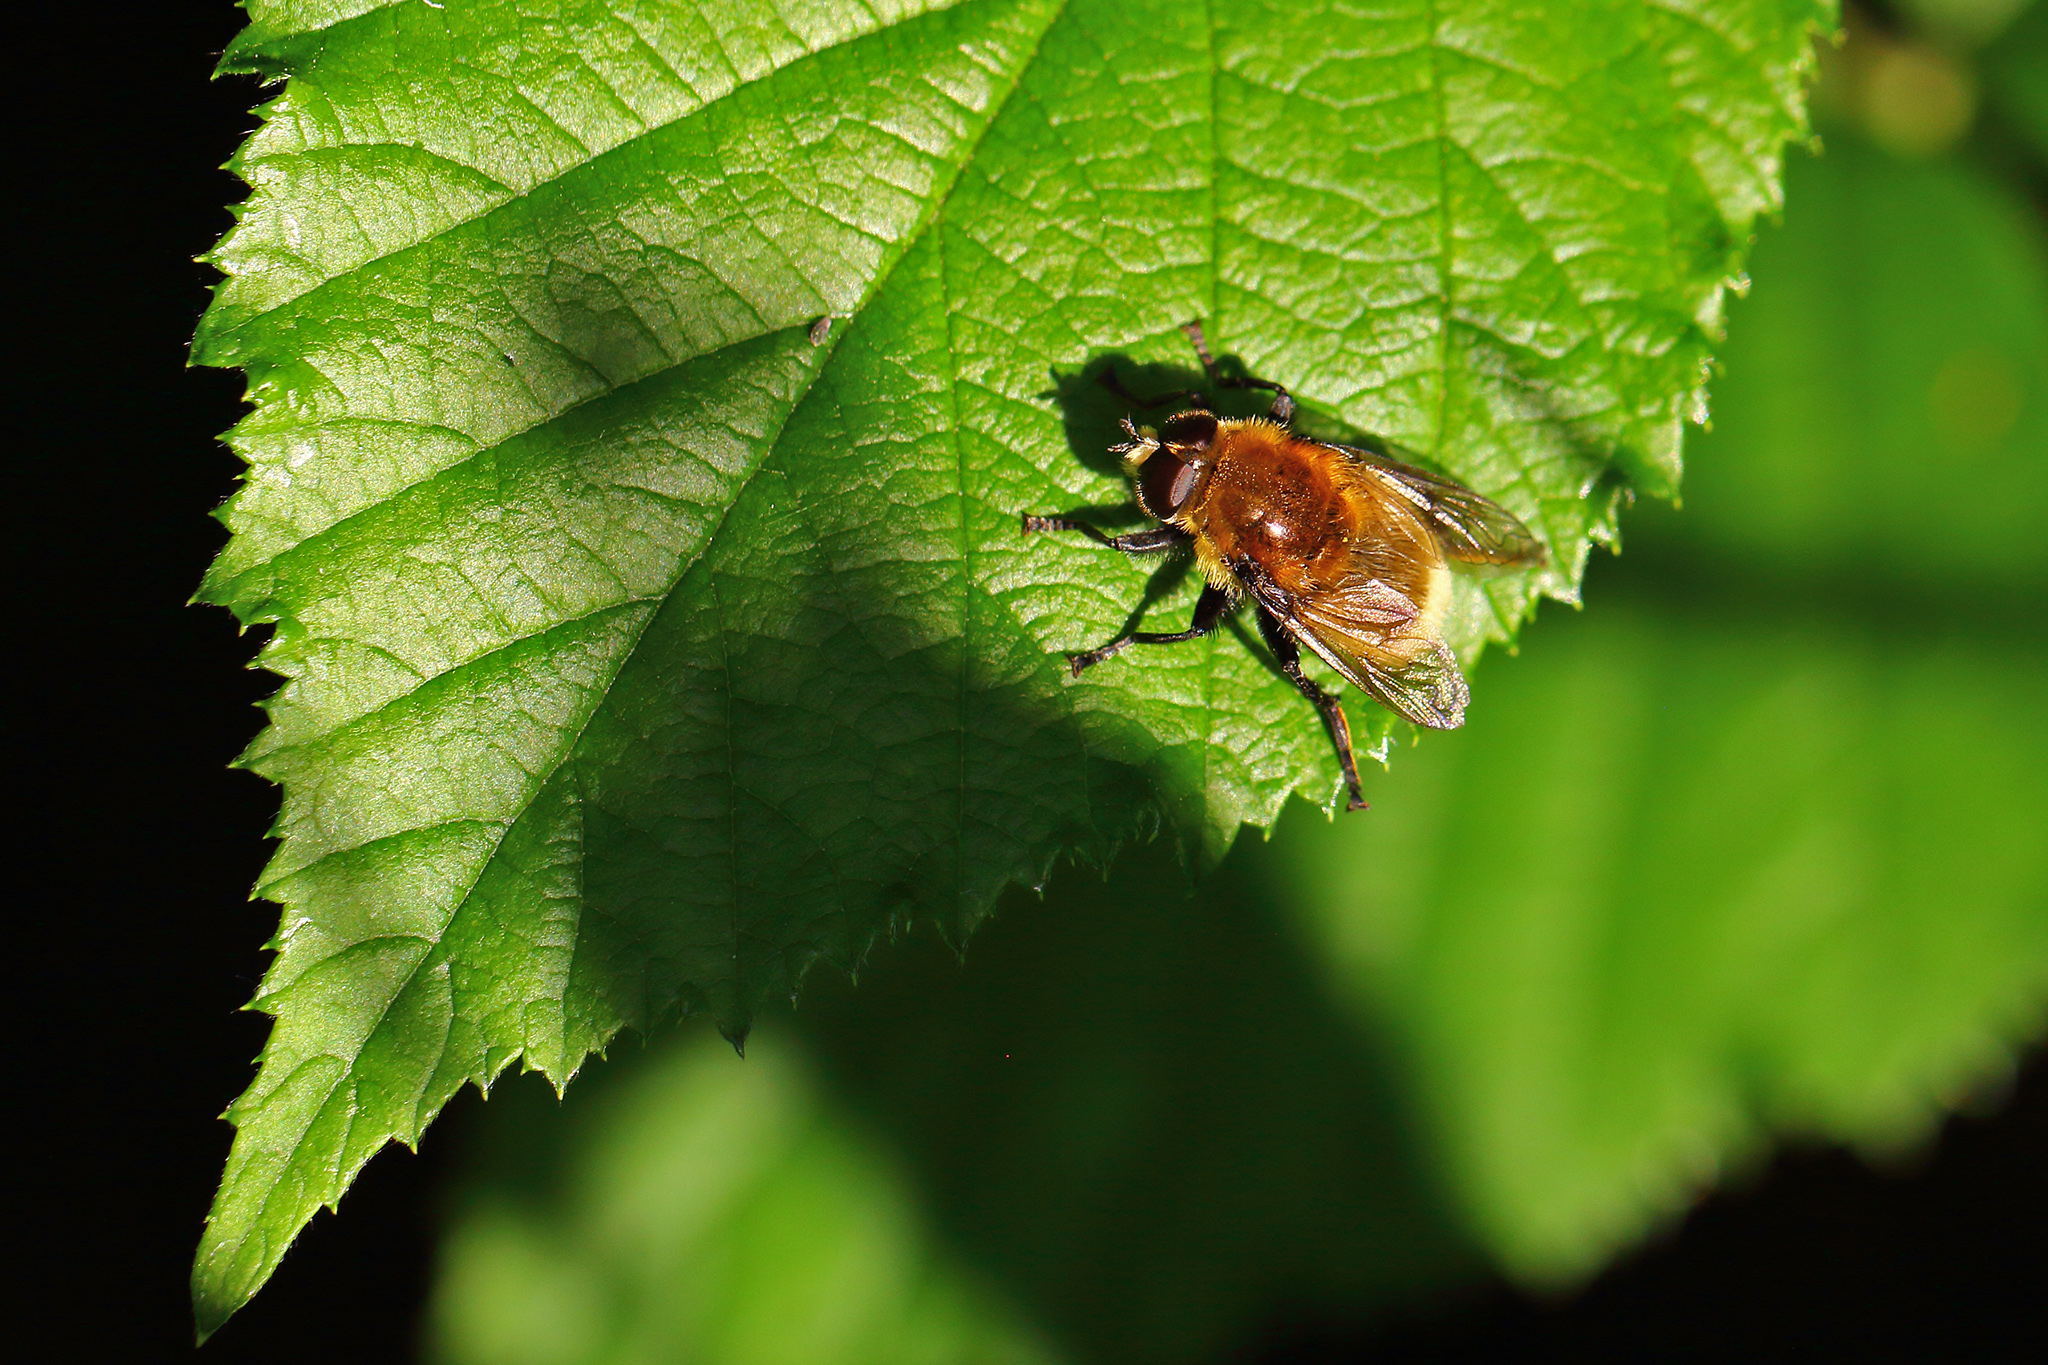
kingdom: Animalia
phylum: Arthropoda
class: Insecta
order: Diptera
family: Syrphidae
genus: Merodon
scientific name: Merodon equestris
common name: Greater bulb-fly
